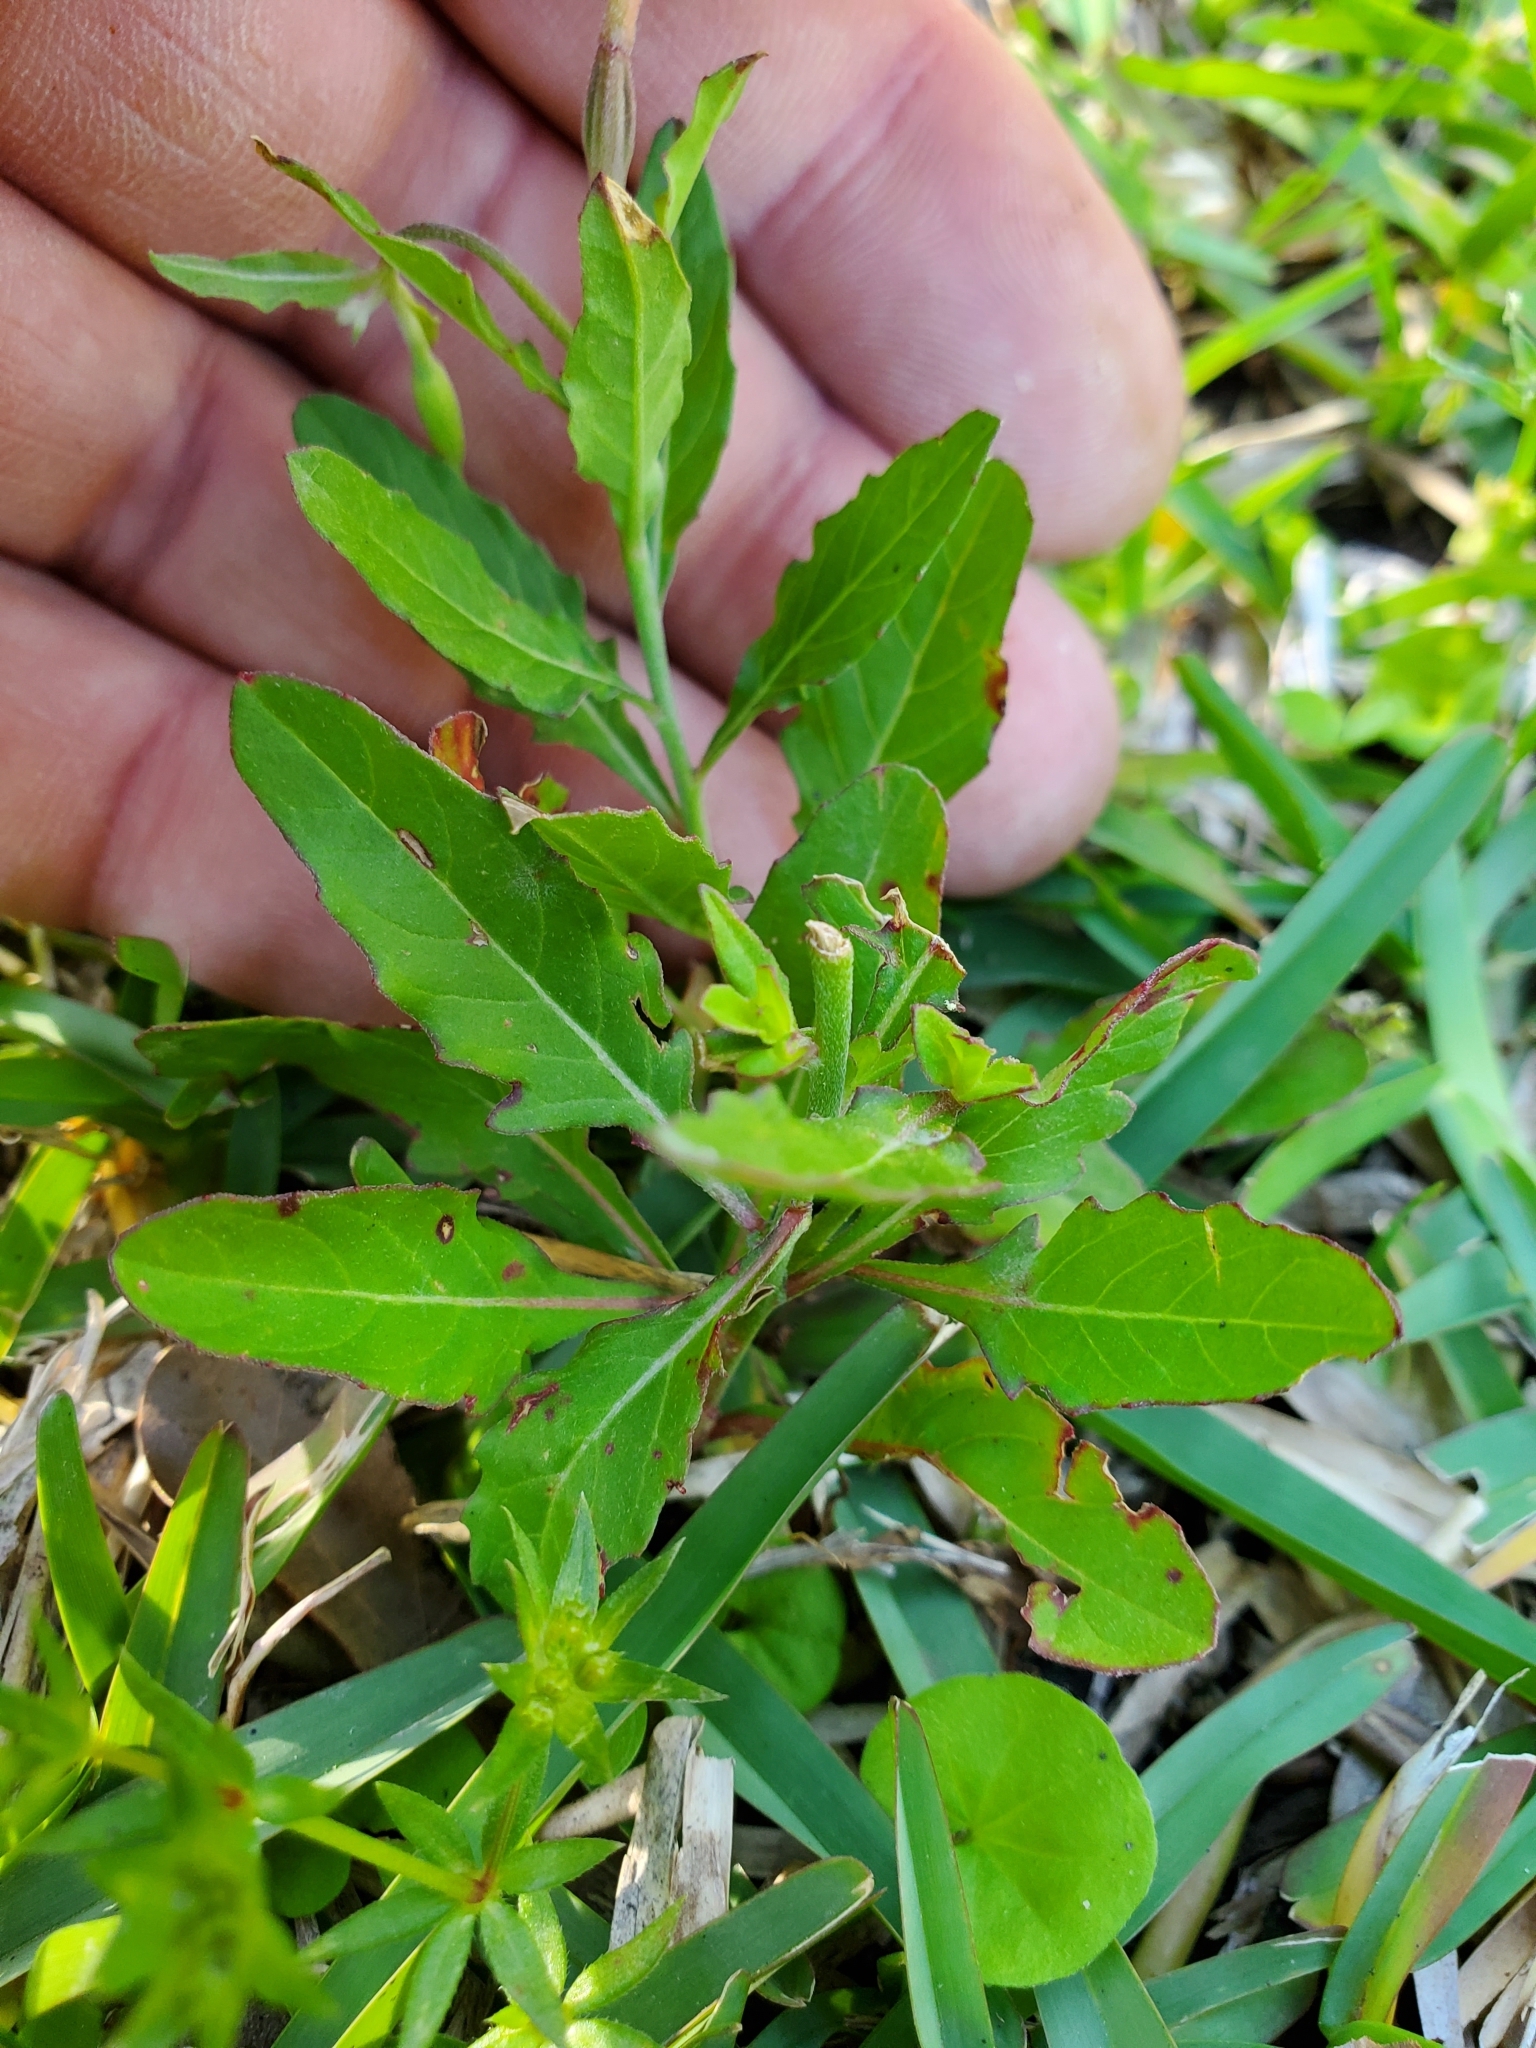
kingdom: Plantae
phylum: Tracheophyta
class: Magnoliopsida
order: Myrtales
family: Onagraceae
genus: Oenothera
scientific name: Oenothera speciosa
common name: White evening-primrose
